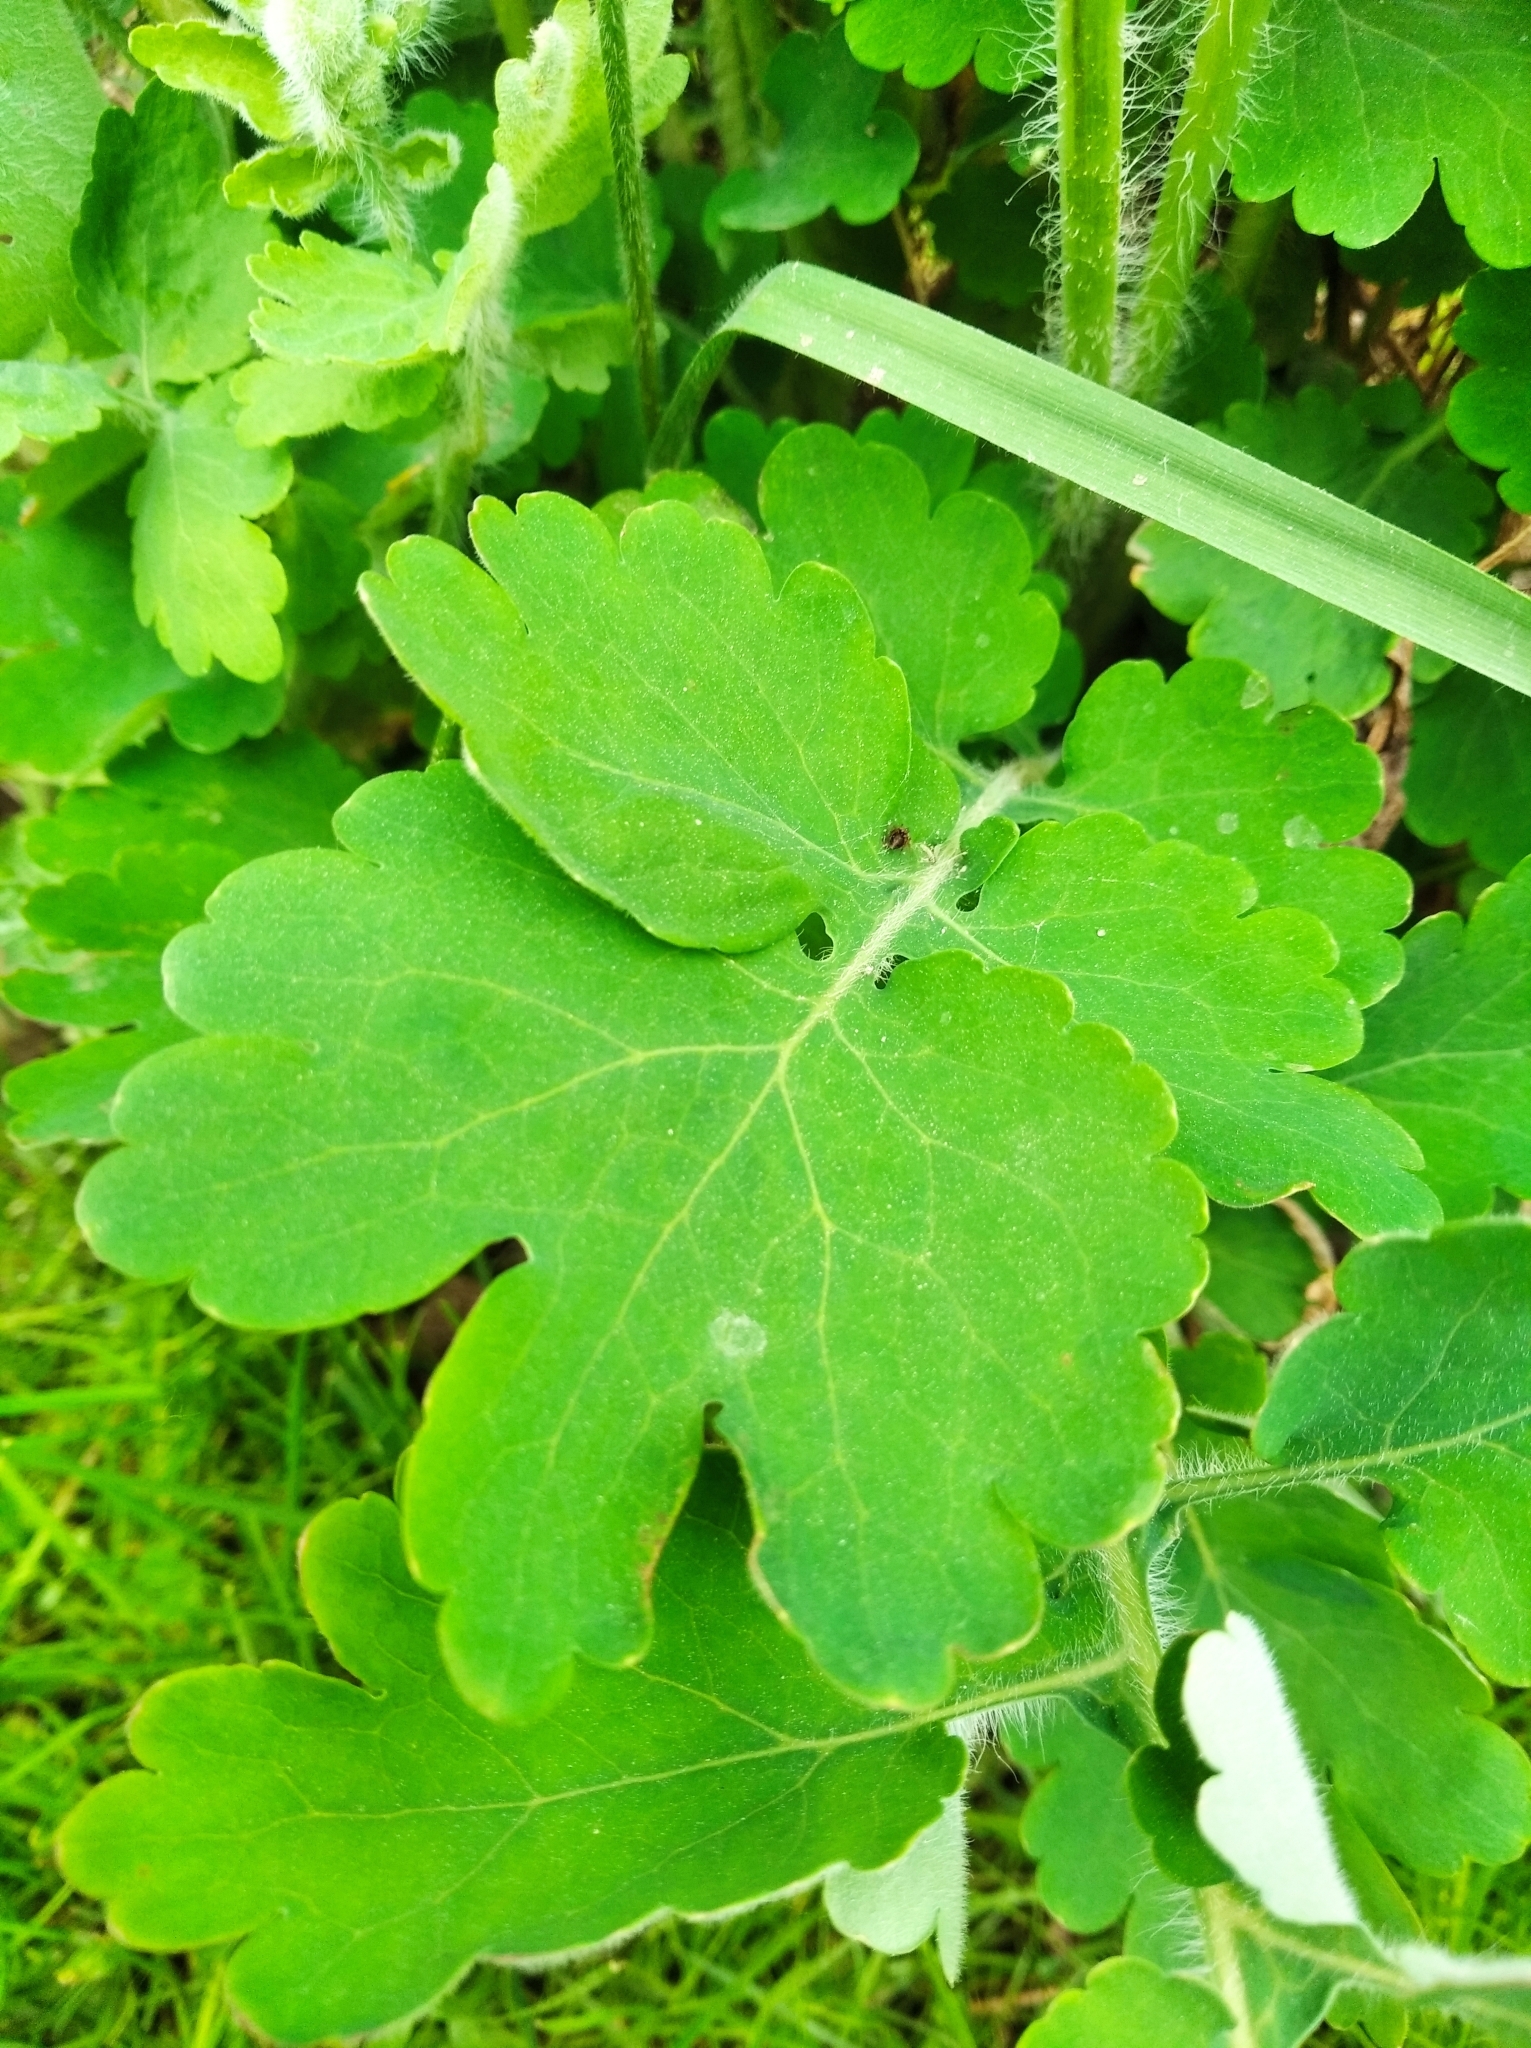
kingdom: Plantae
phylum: Tracheophyta
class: Magnoliopsida
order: Ranunculales
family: Papaveraceae
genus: Chelidonium
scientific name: Chelidonium majus
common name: Greater celandine
